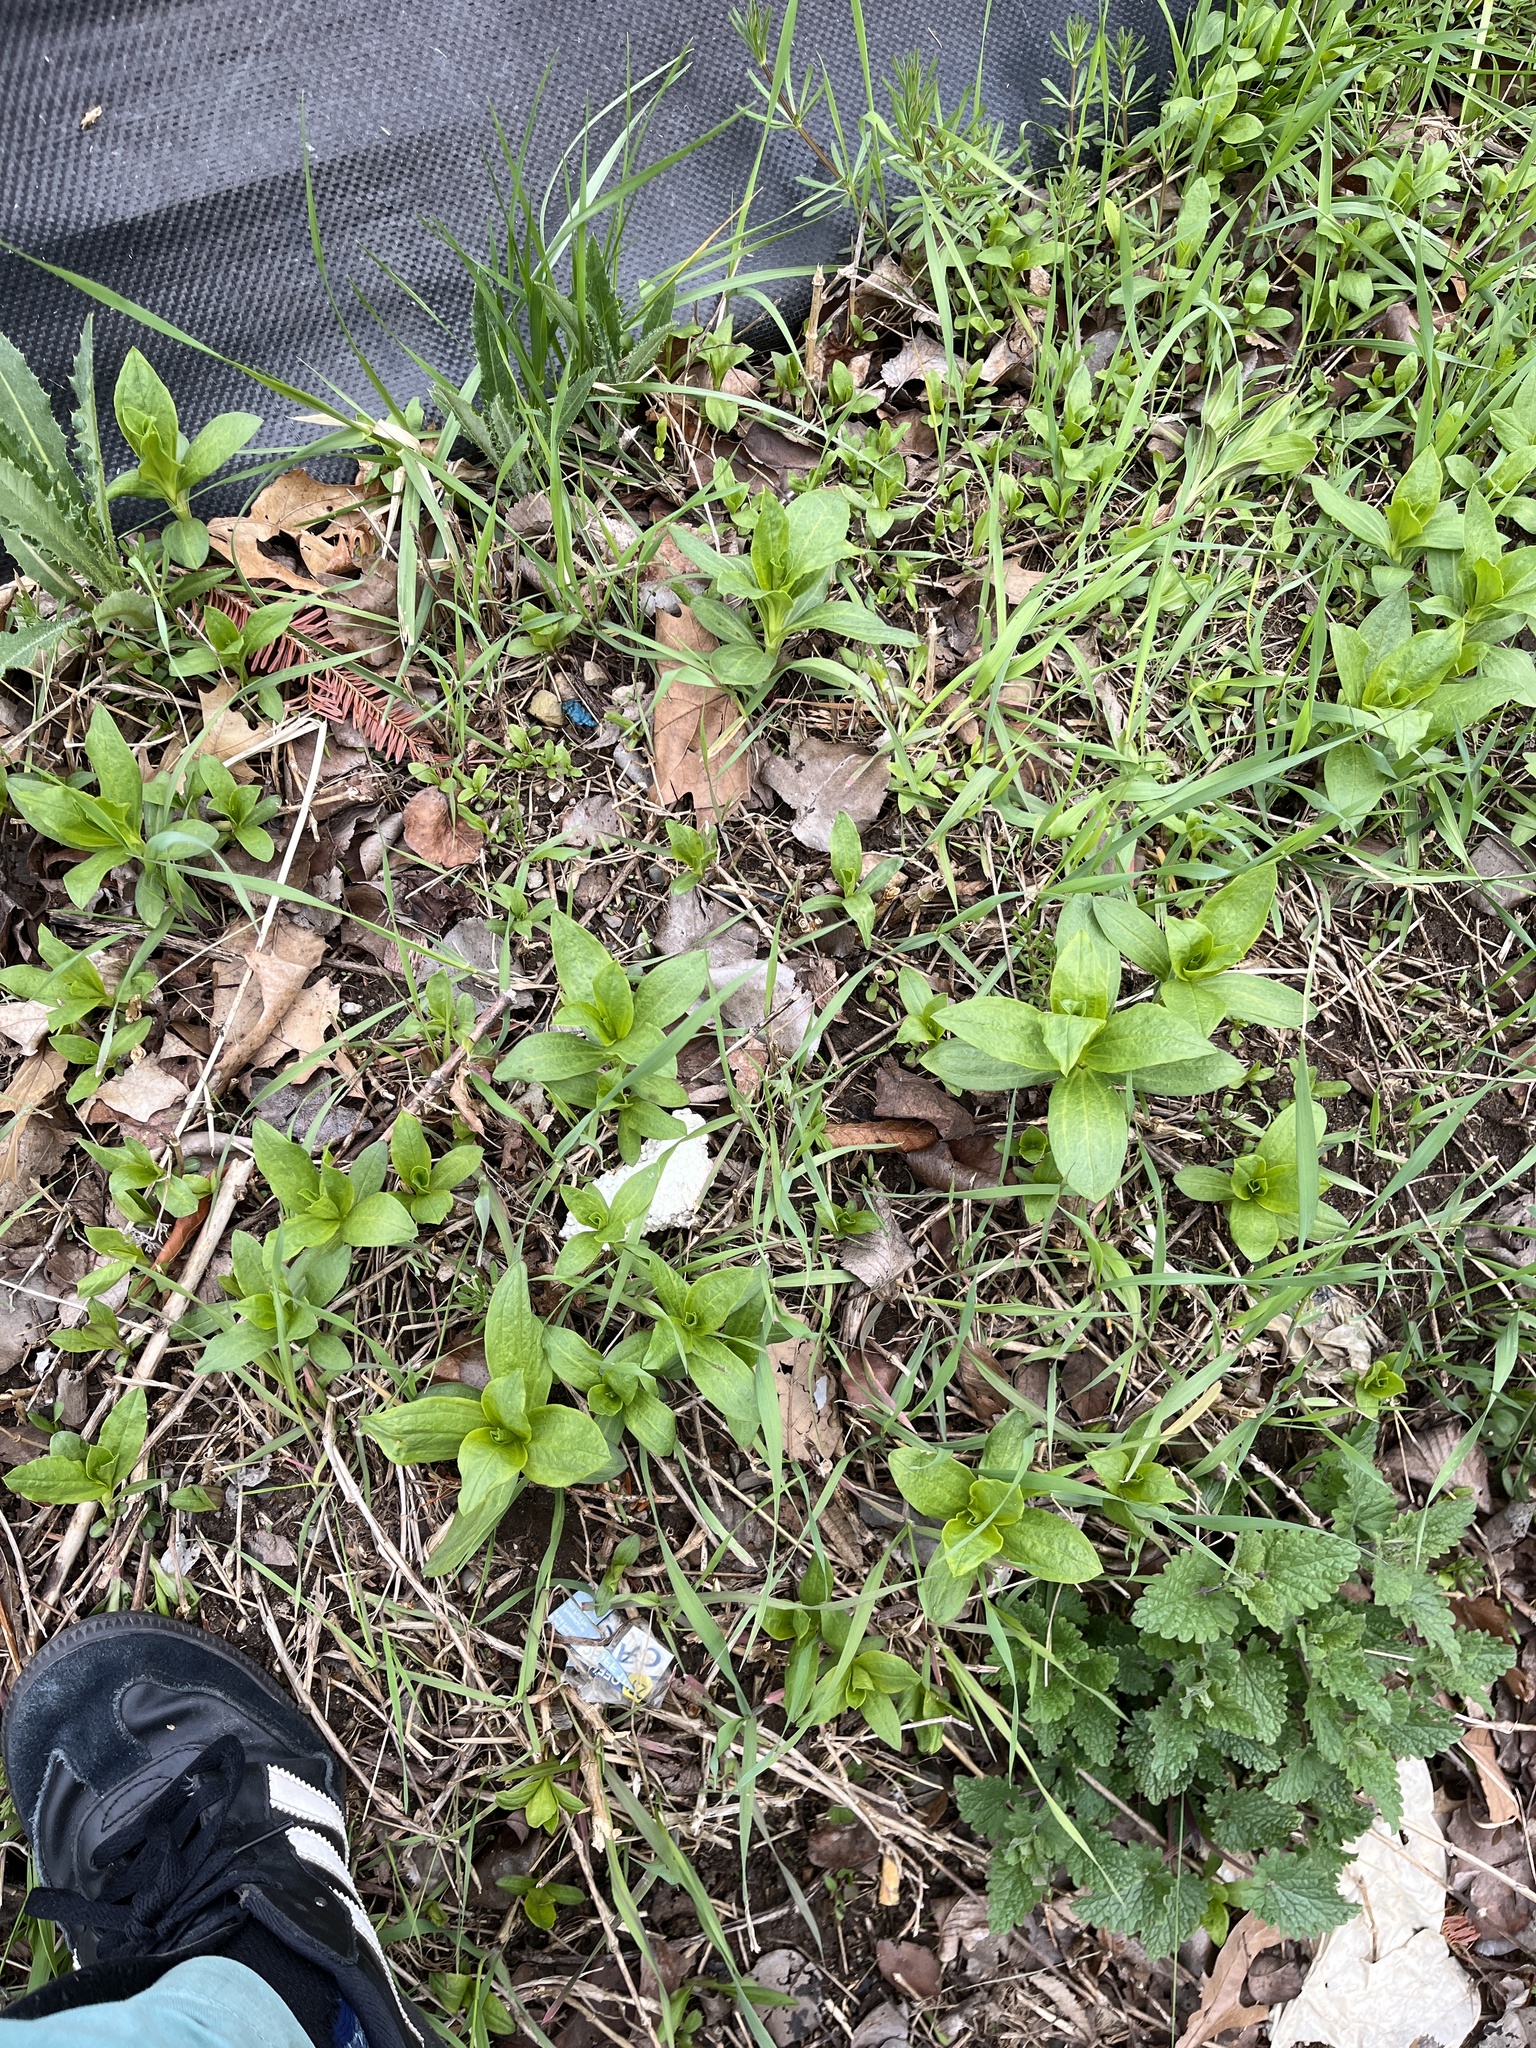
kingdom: Plantae
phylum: Tracheophyta
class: Magnoliopsida
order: Caryophyllales
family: Caryophyllaceae
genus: Saponaria
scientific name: Saponaria officinalis
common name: Soapwort
